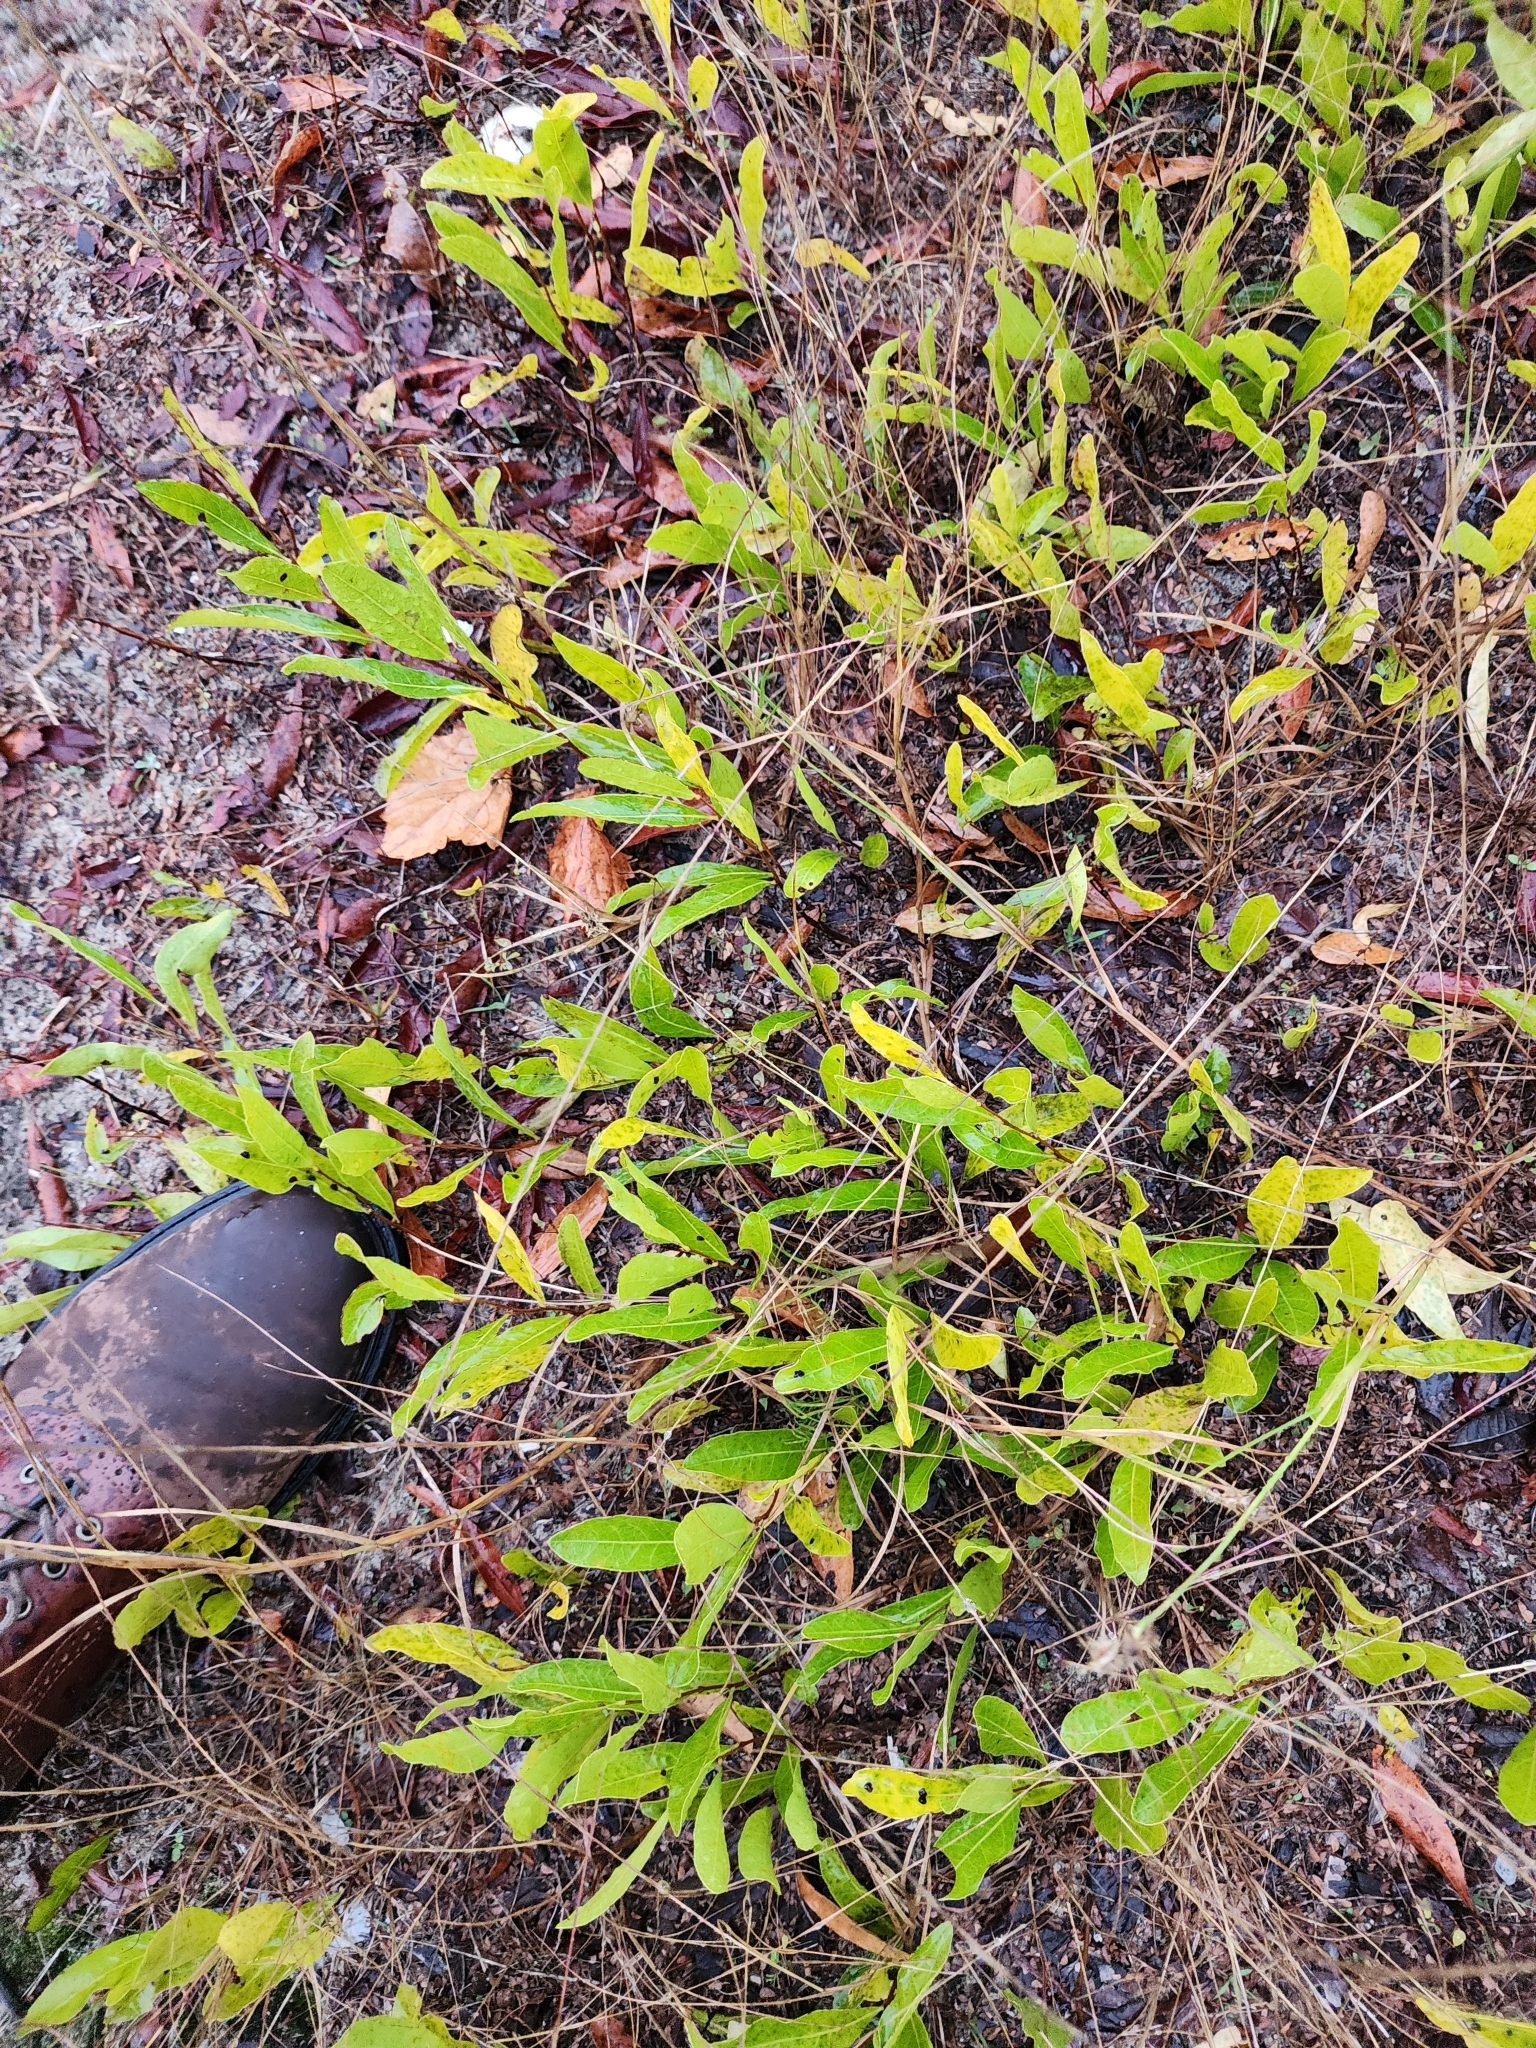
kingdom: Plantae
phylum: Tracheophyta
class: Magnoliopsida
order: Malpighiales
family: Chrysobalanaceae
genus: Geobalanus
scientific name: Geobalanus oblongifolius
